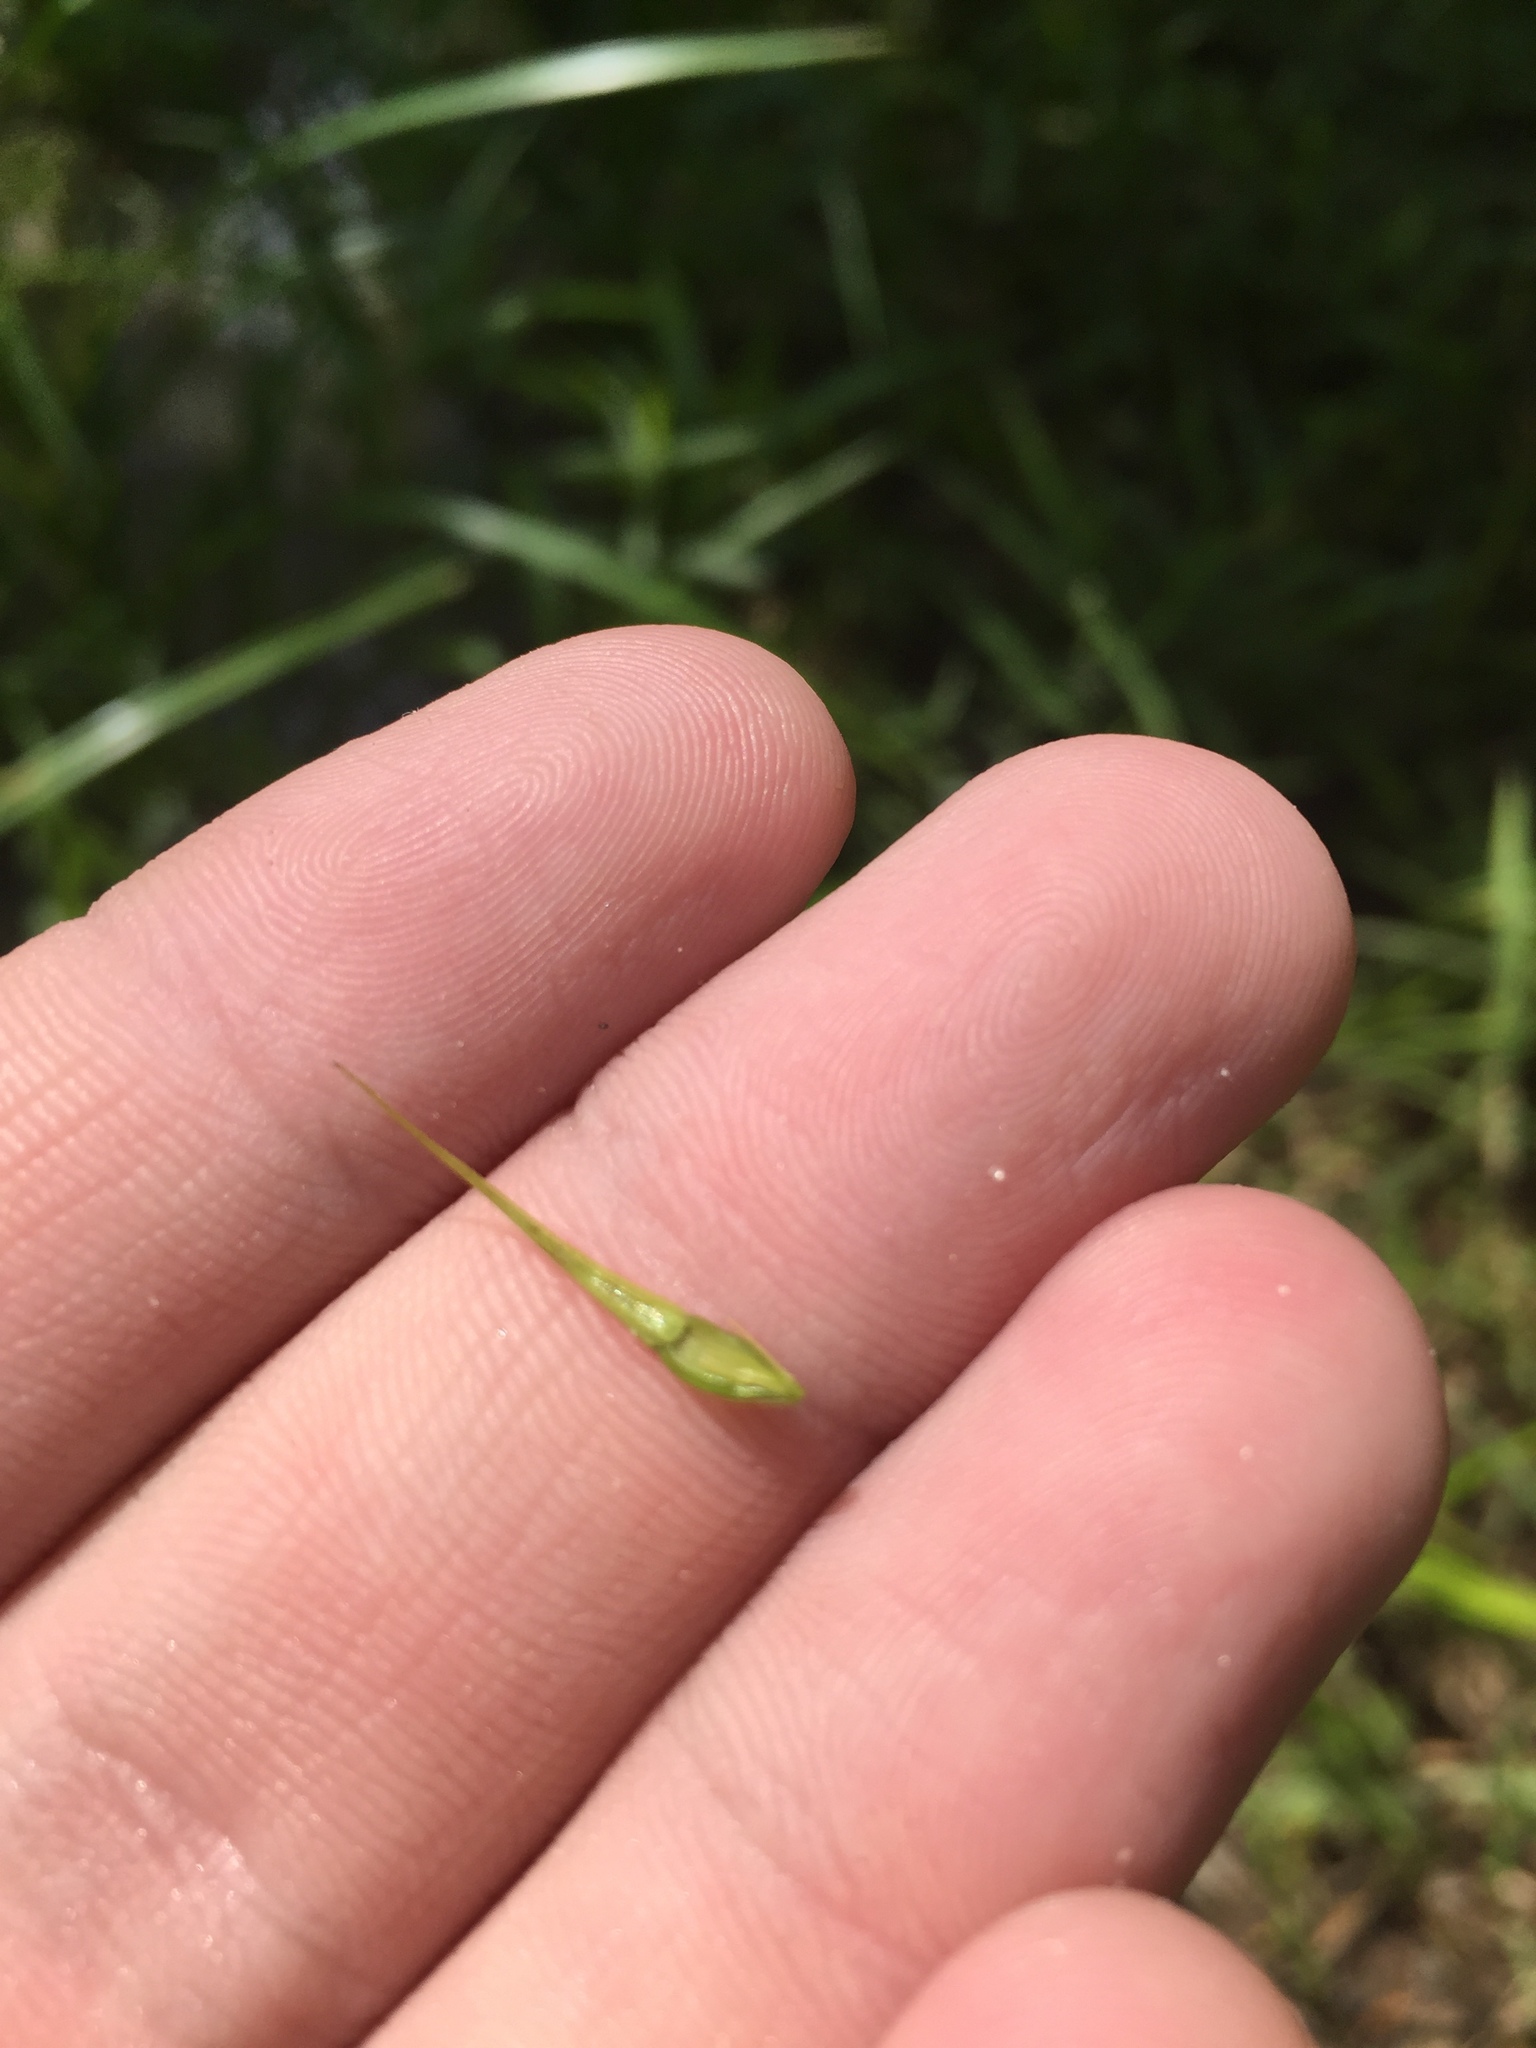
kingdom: Plantae
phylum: Tracheophyta
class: Liliopsida
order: Poales
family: Cyperaceae
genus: Rhynchospora
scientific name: Rhynchospora corniculata
